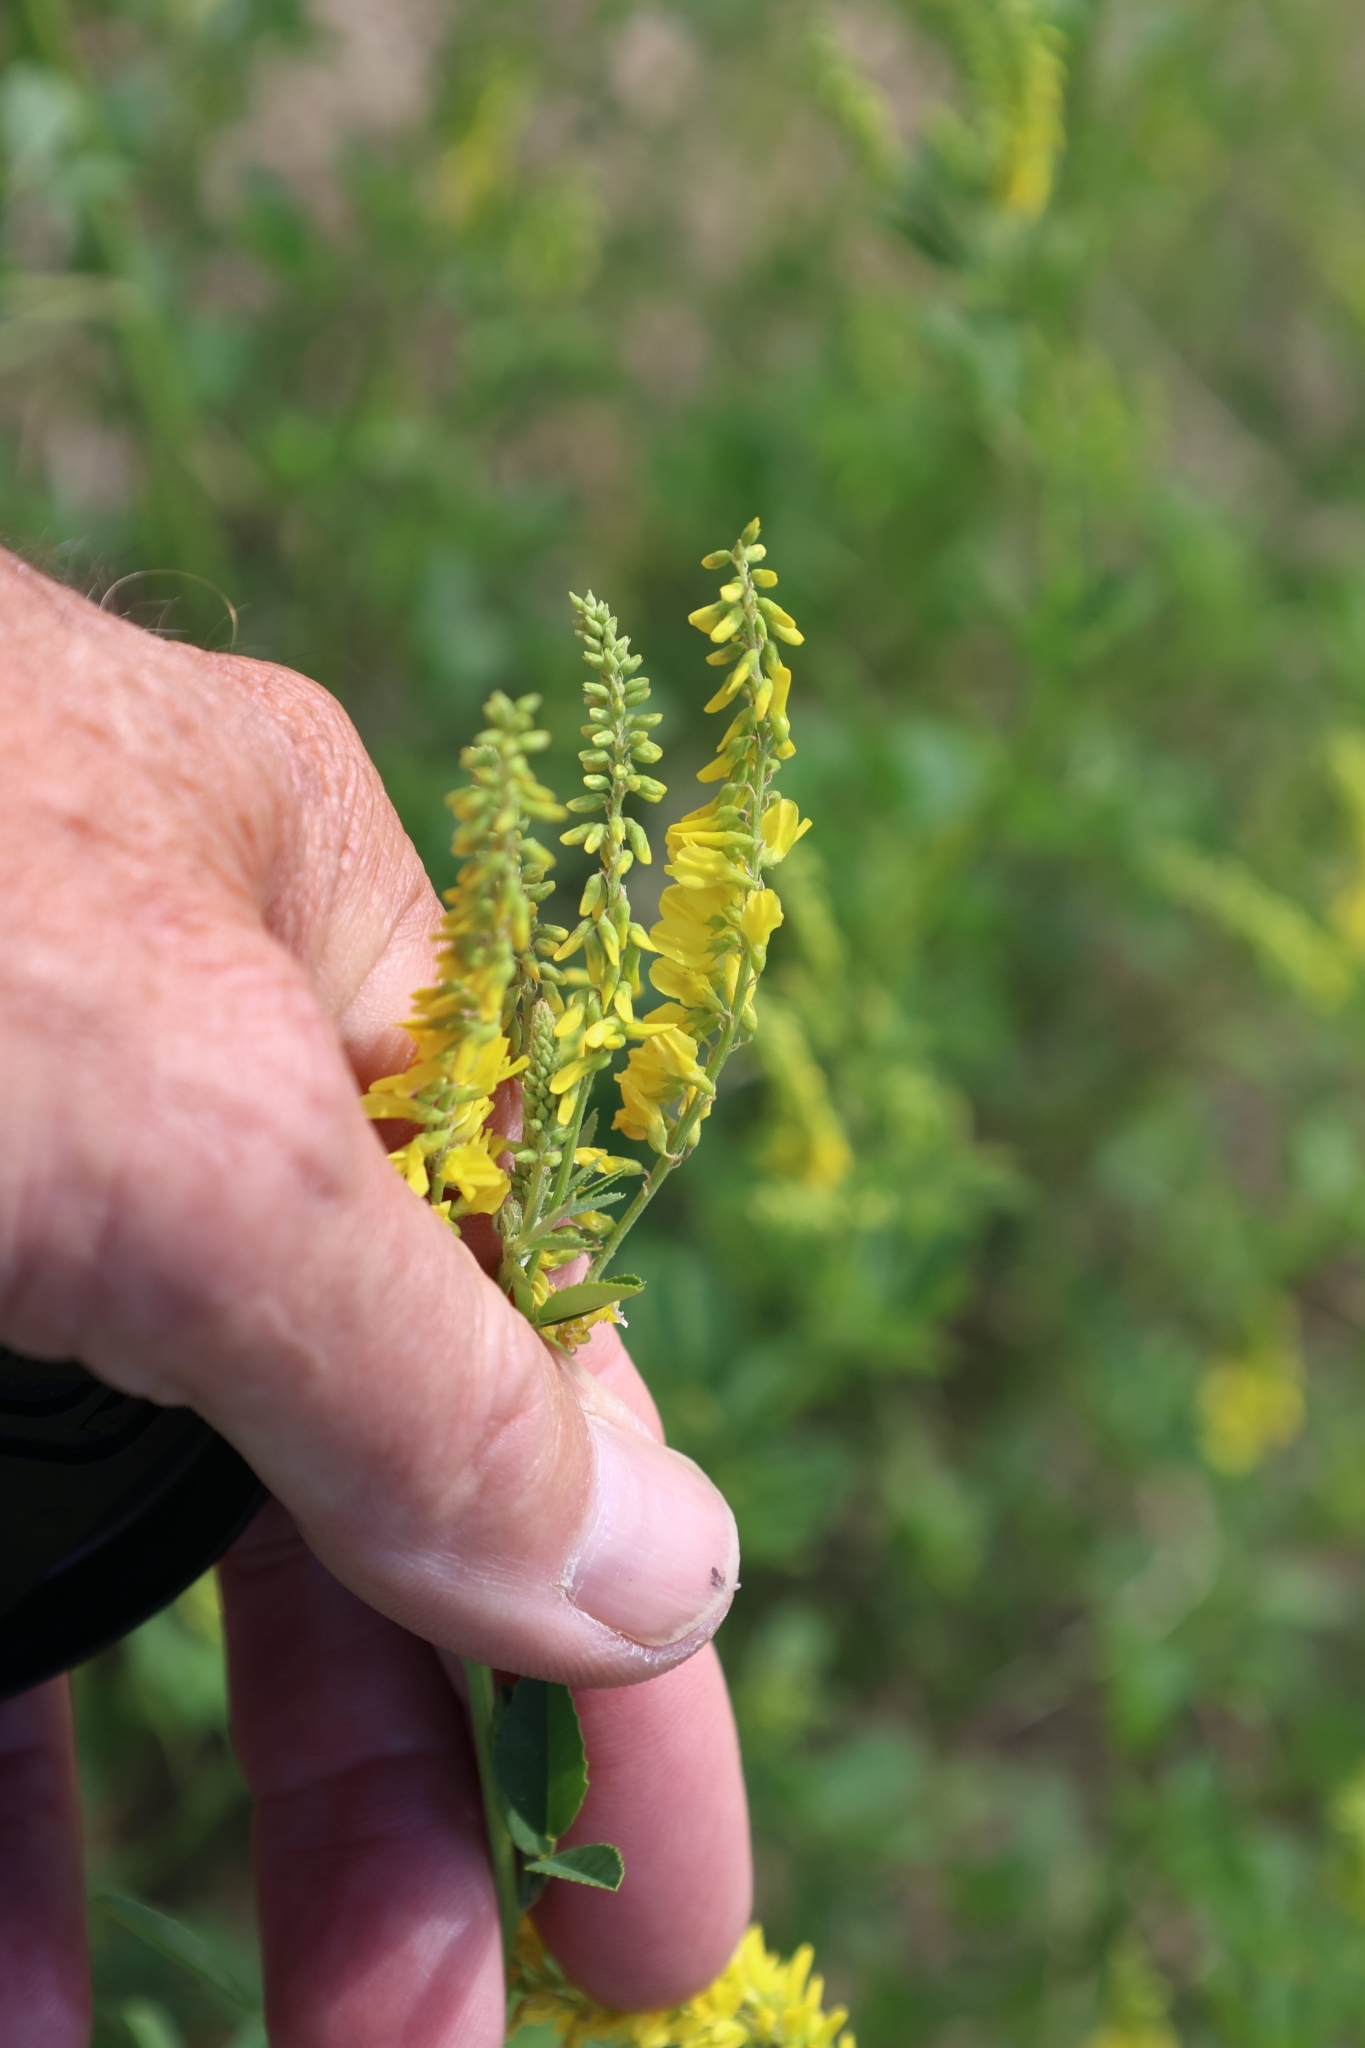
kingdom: Plantae
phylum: Tracheophyta
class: Magnoliopsida
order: Fabales
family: Fabaceae
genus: Melilotus
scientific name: Melilotus officinalis
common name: Sweetclover
